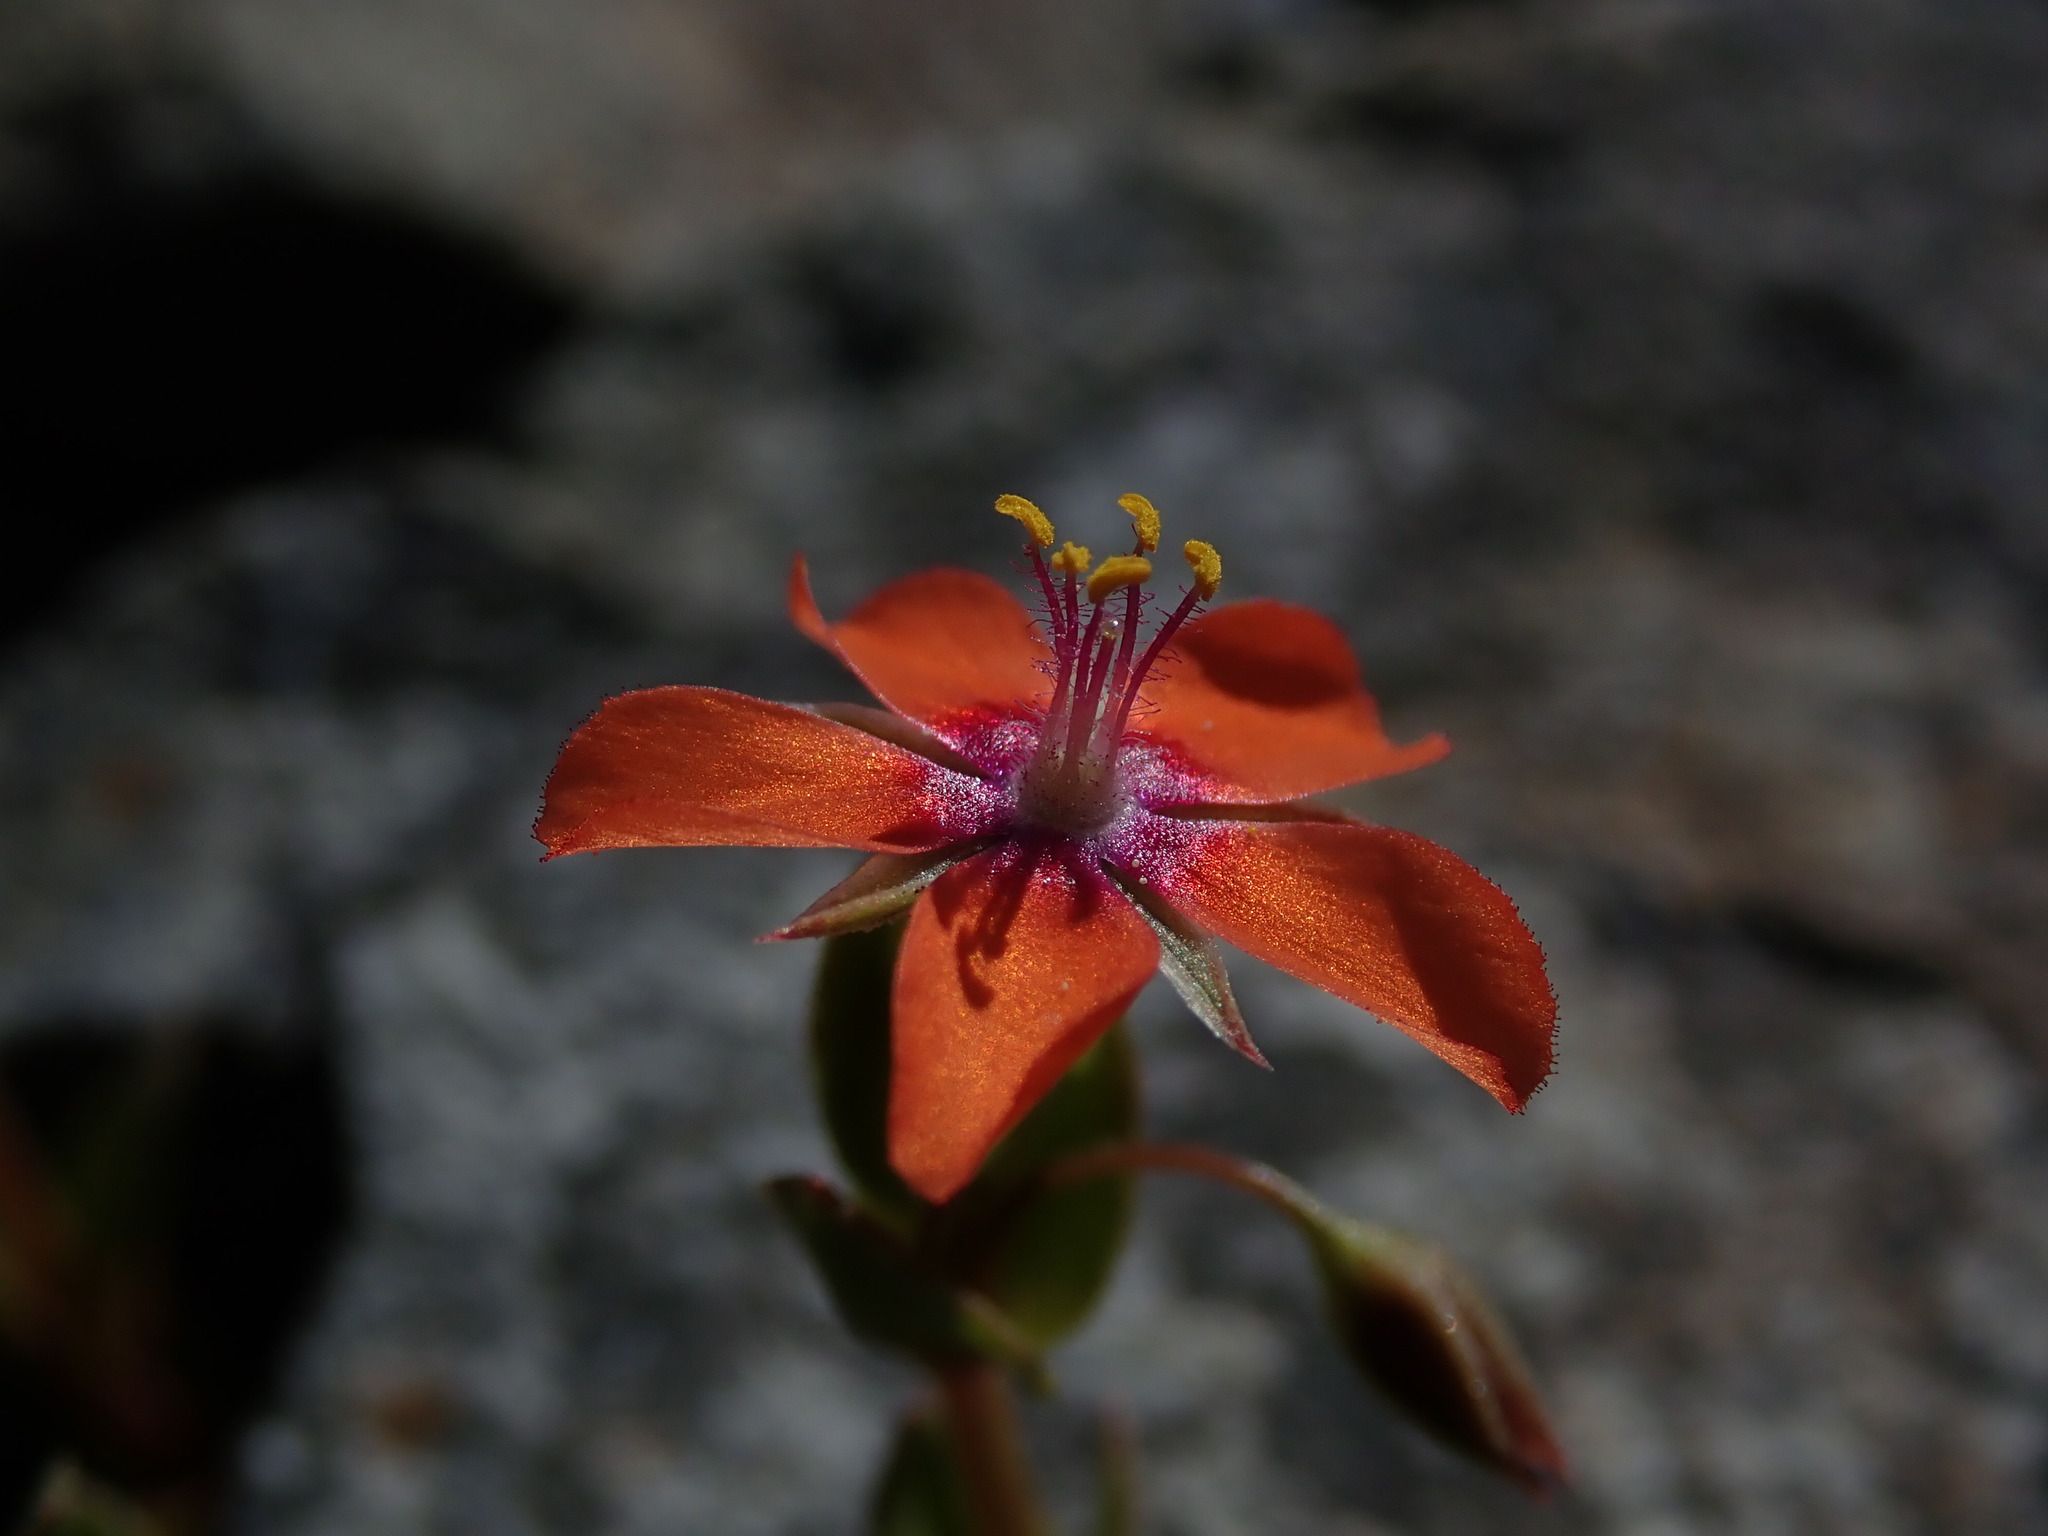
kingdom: Plantae
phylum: Tracheophyta
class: Magnoliopsida
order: Ericales
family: Primulaceae
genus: Lysimachia
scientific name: Lysimachia arvensis
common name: Scarlet pimpernel
